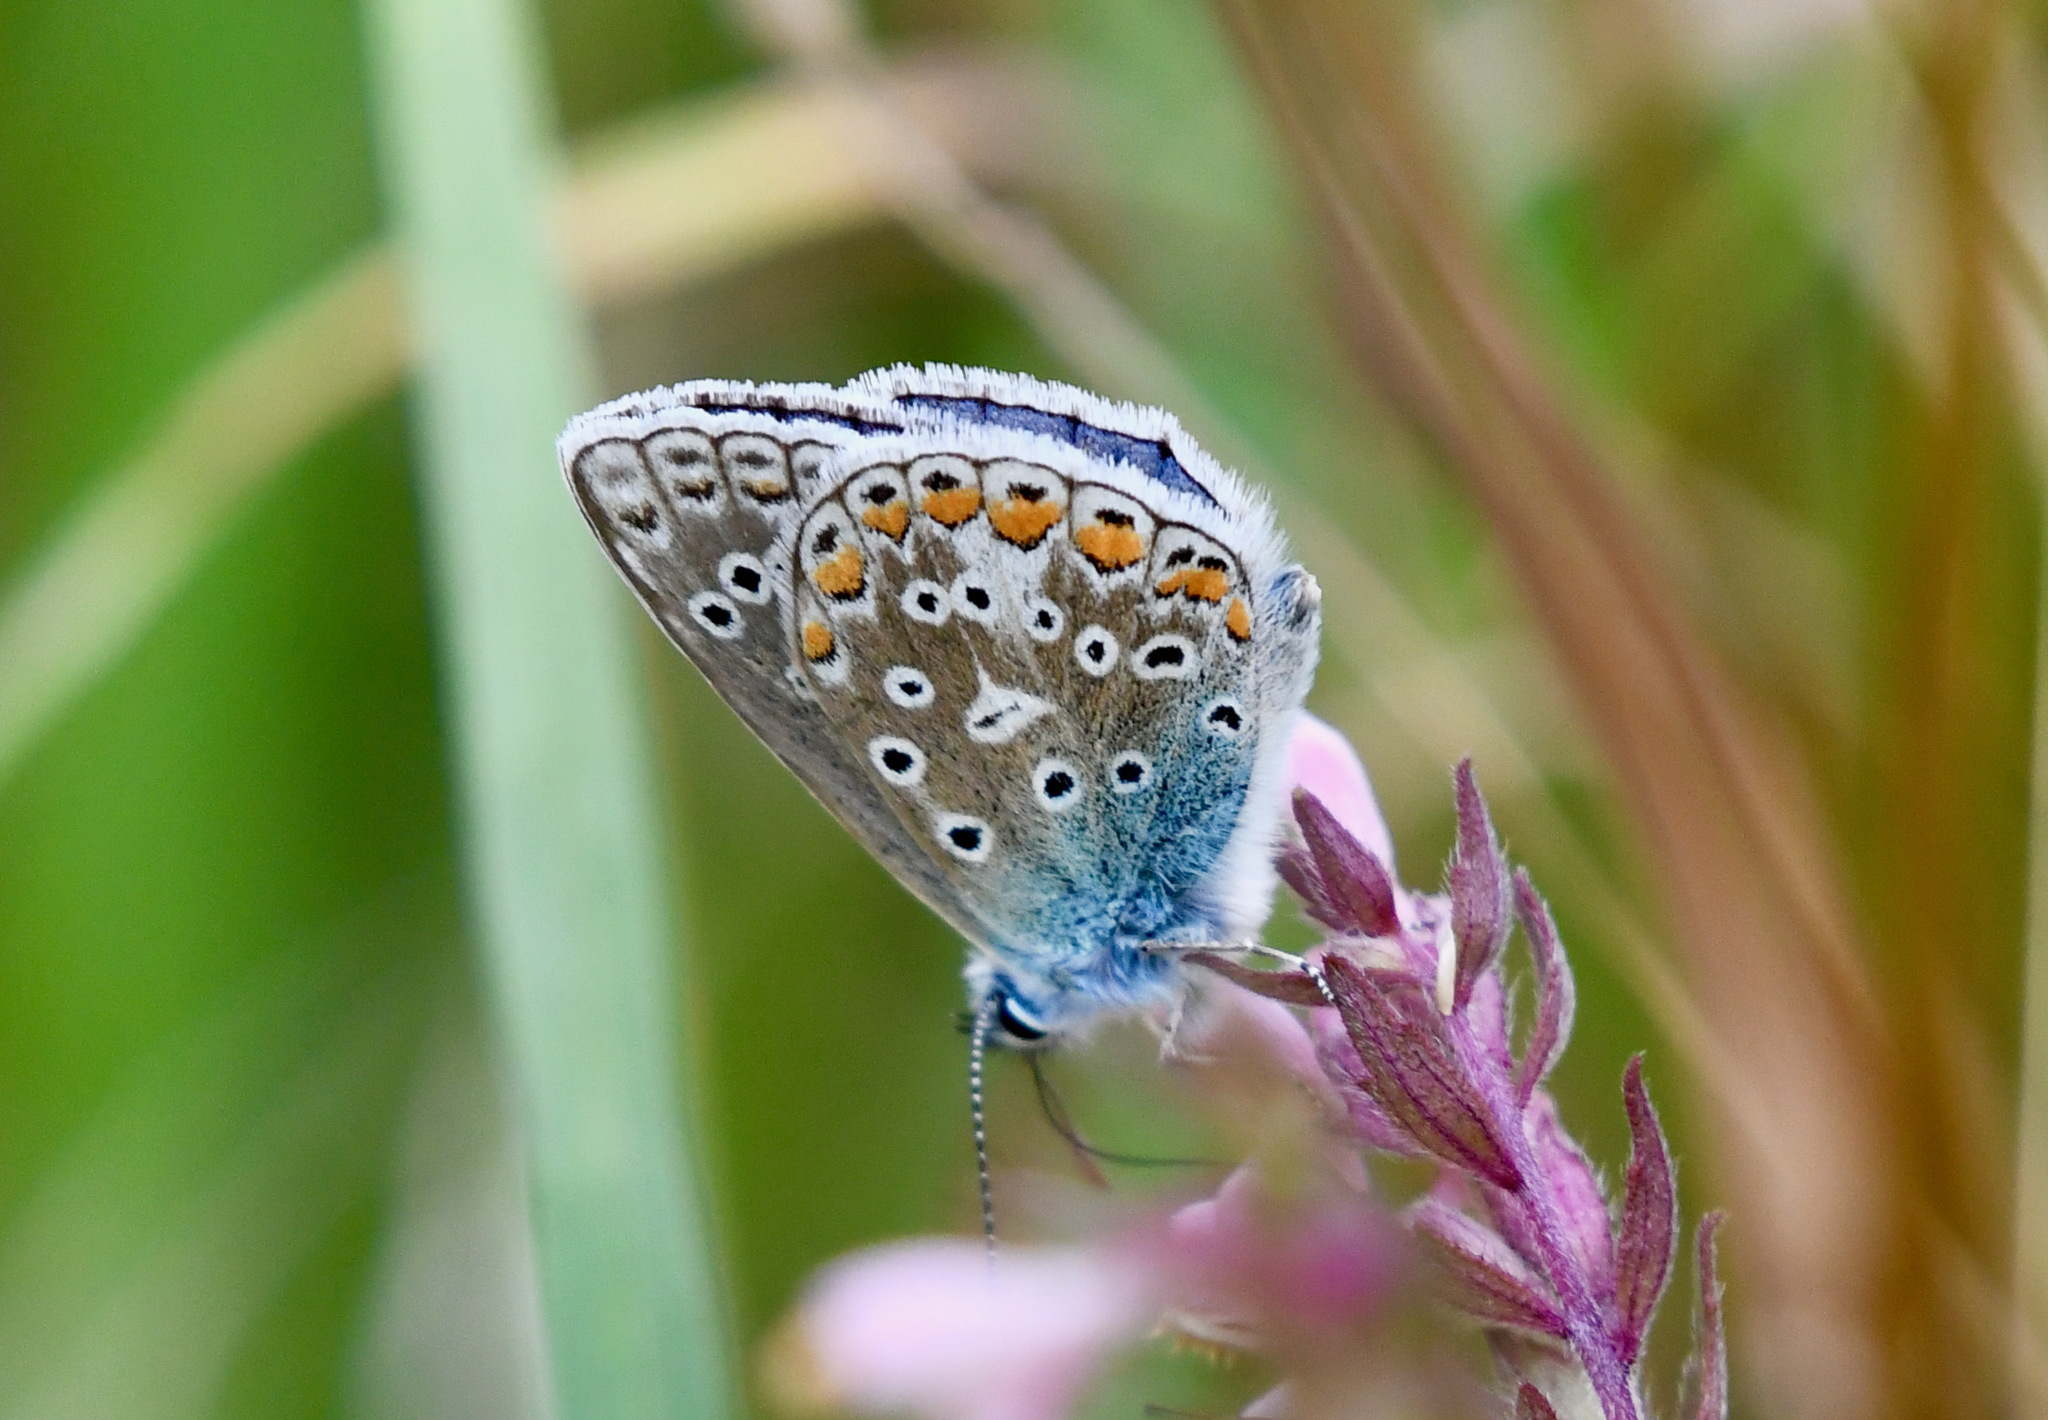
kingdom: Animalia
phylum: Arthropoda
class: Insecta
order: Lepidoptera
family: Lycaenidae
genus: Polyommatus
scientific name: Polyommatus icarus
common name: Common blue
